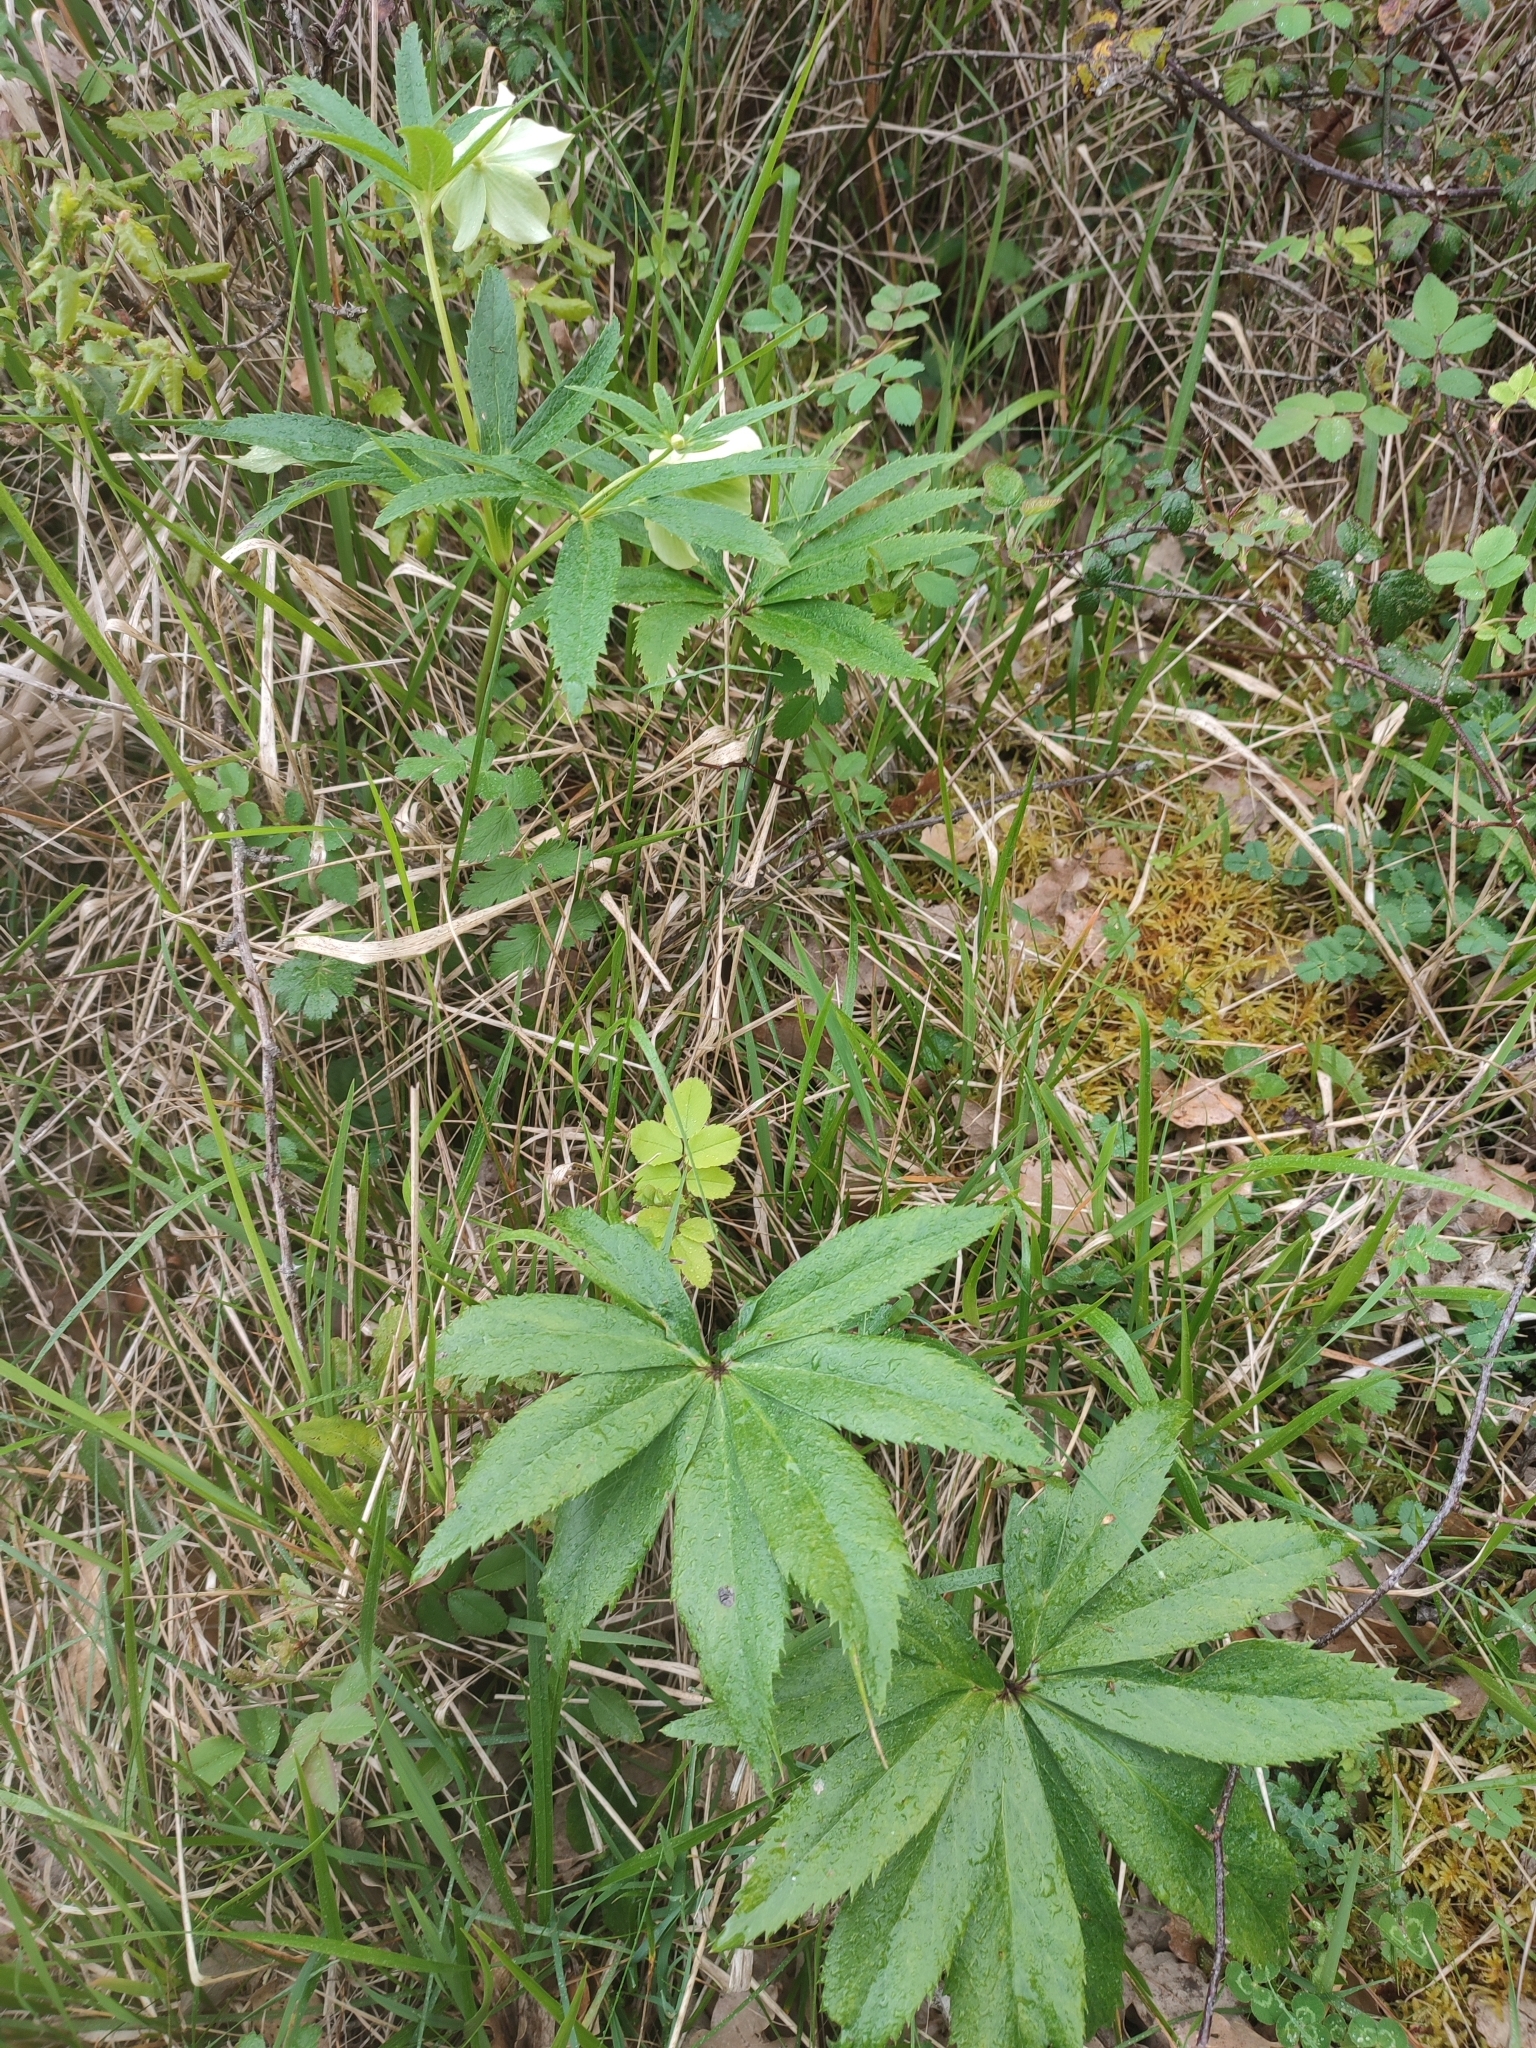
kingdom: Plantae
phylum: Tracheophyta
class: Magnoliopsida
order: Ranunculales
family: Ranunculaceae
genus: Helleborus
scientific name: Helleborus viridis
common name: Green hellebore
